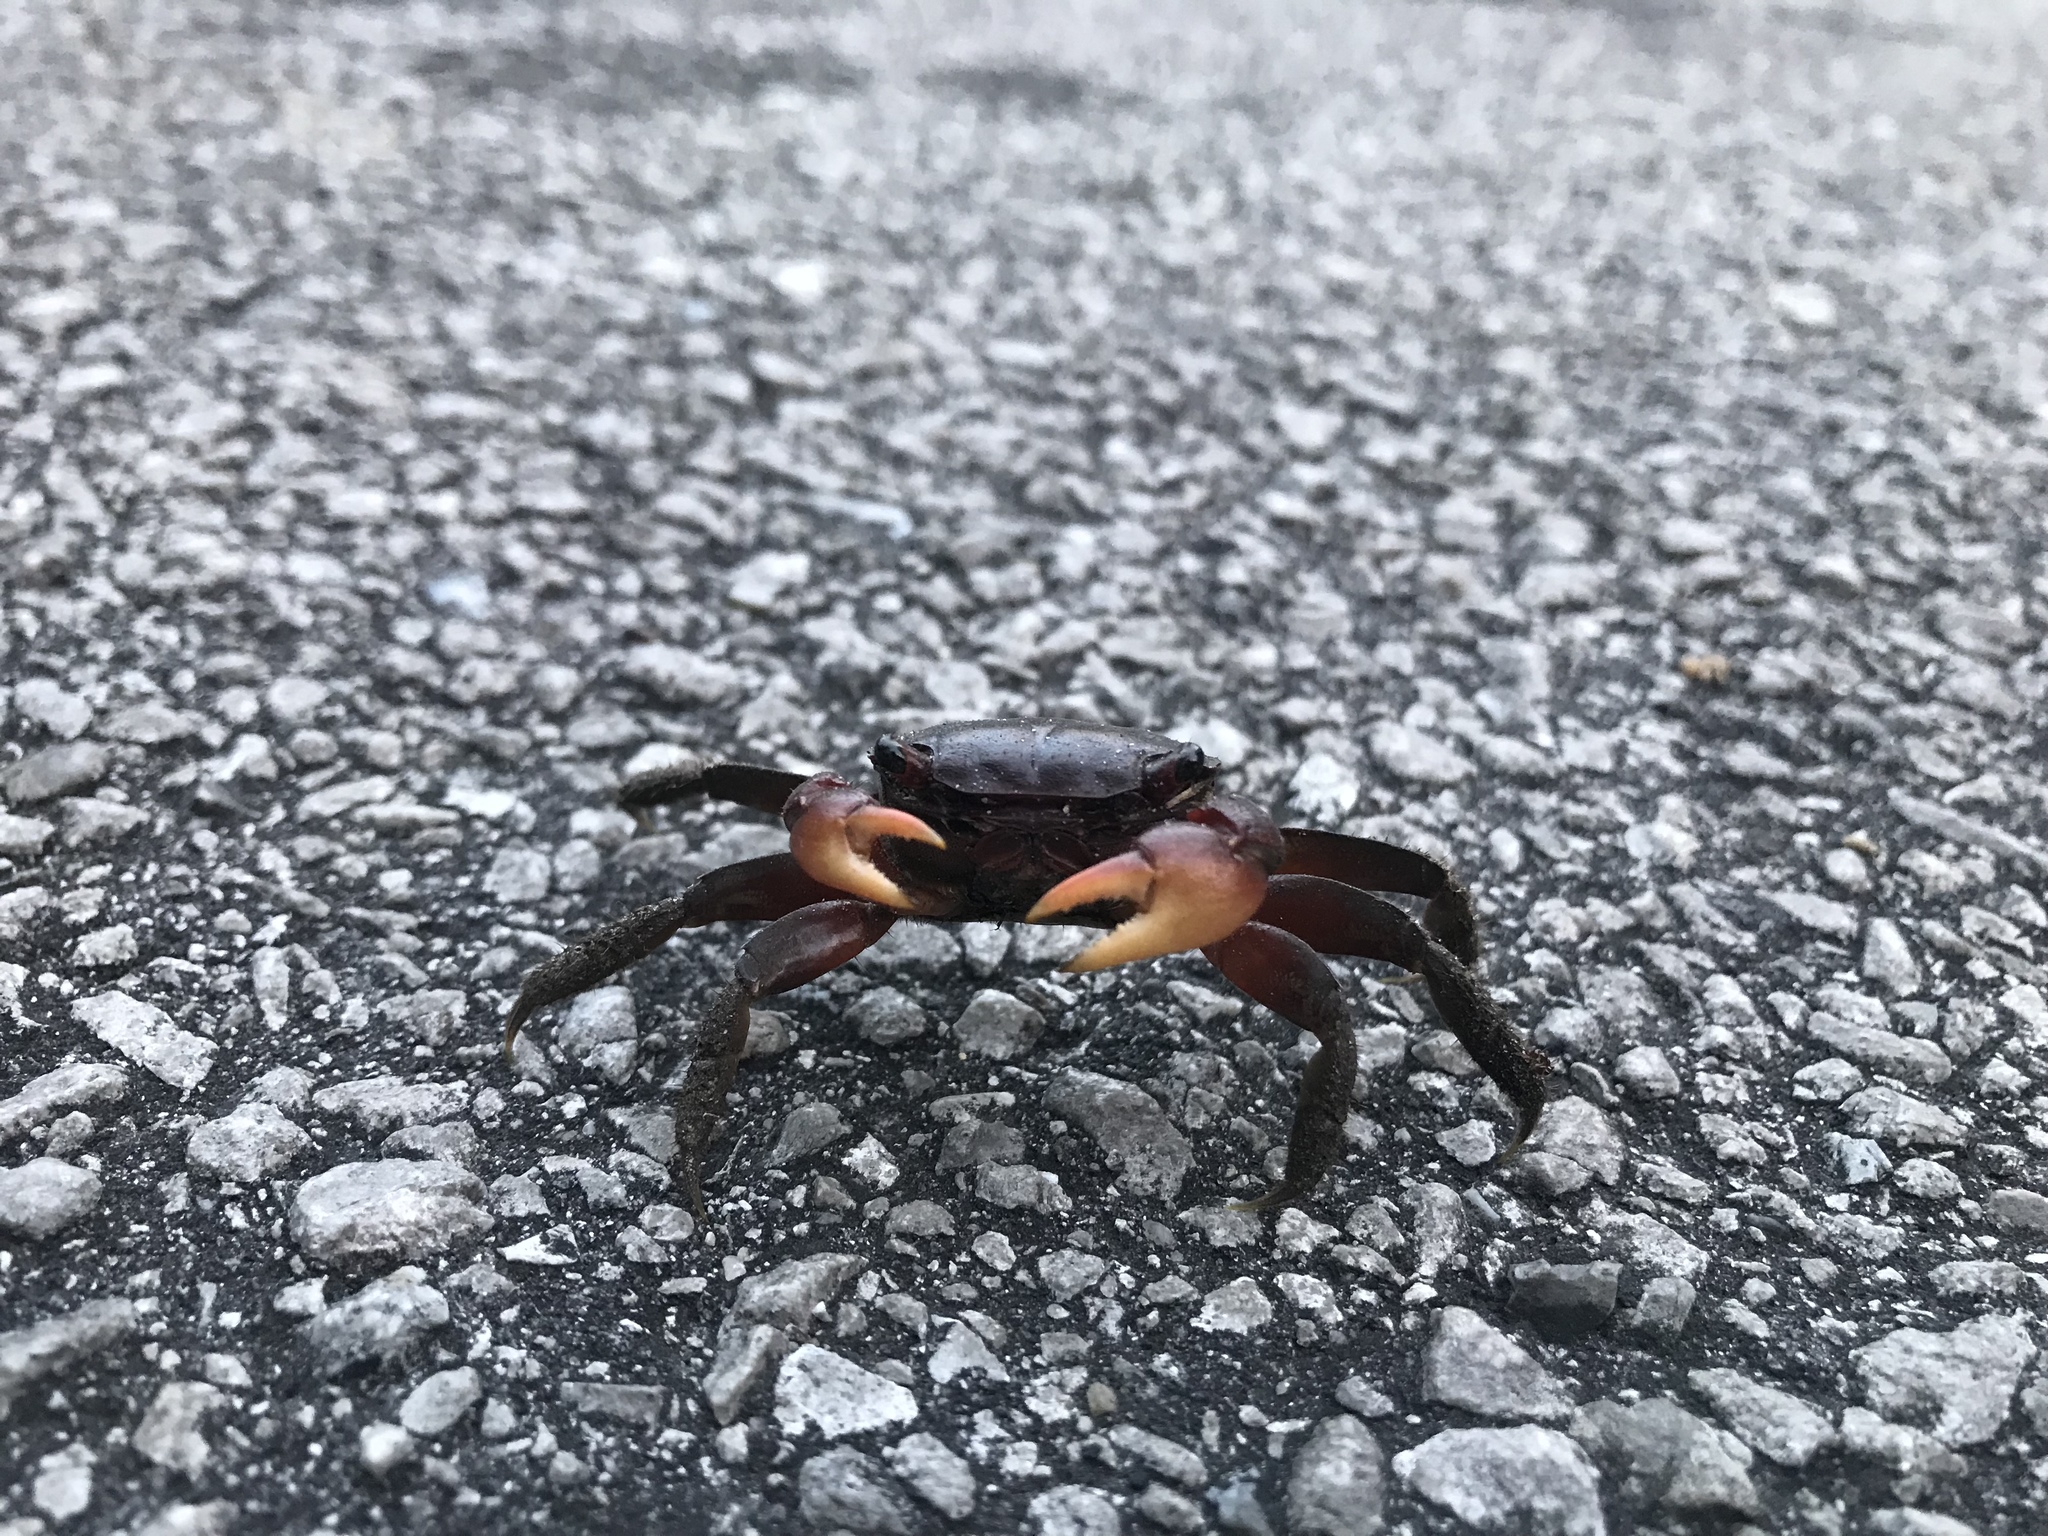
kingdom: Animalia
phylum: Arthropoda
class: Malacostraca
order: Decapoda
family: Sesarmidae
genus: Sesarma
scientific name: Sesarma reticulatum
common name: Heavy marsh crab
